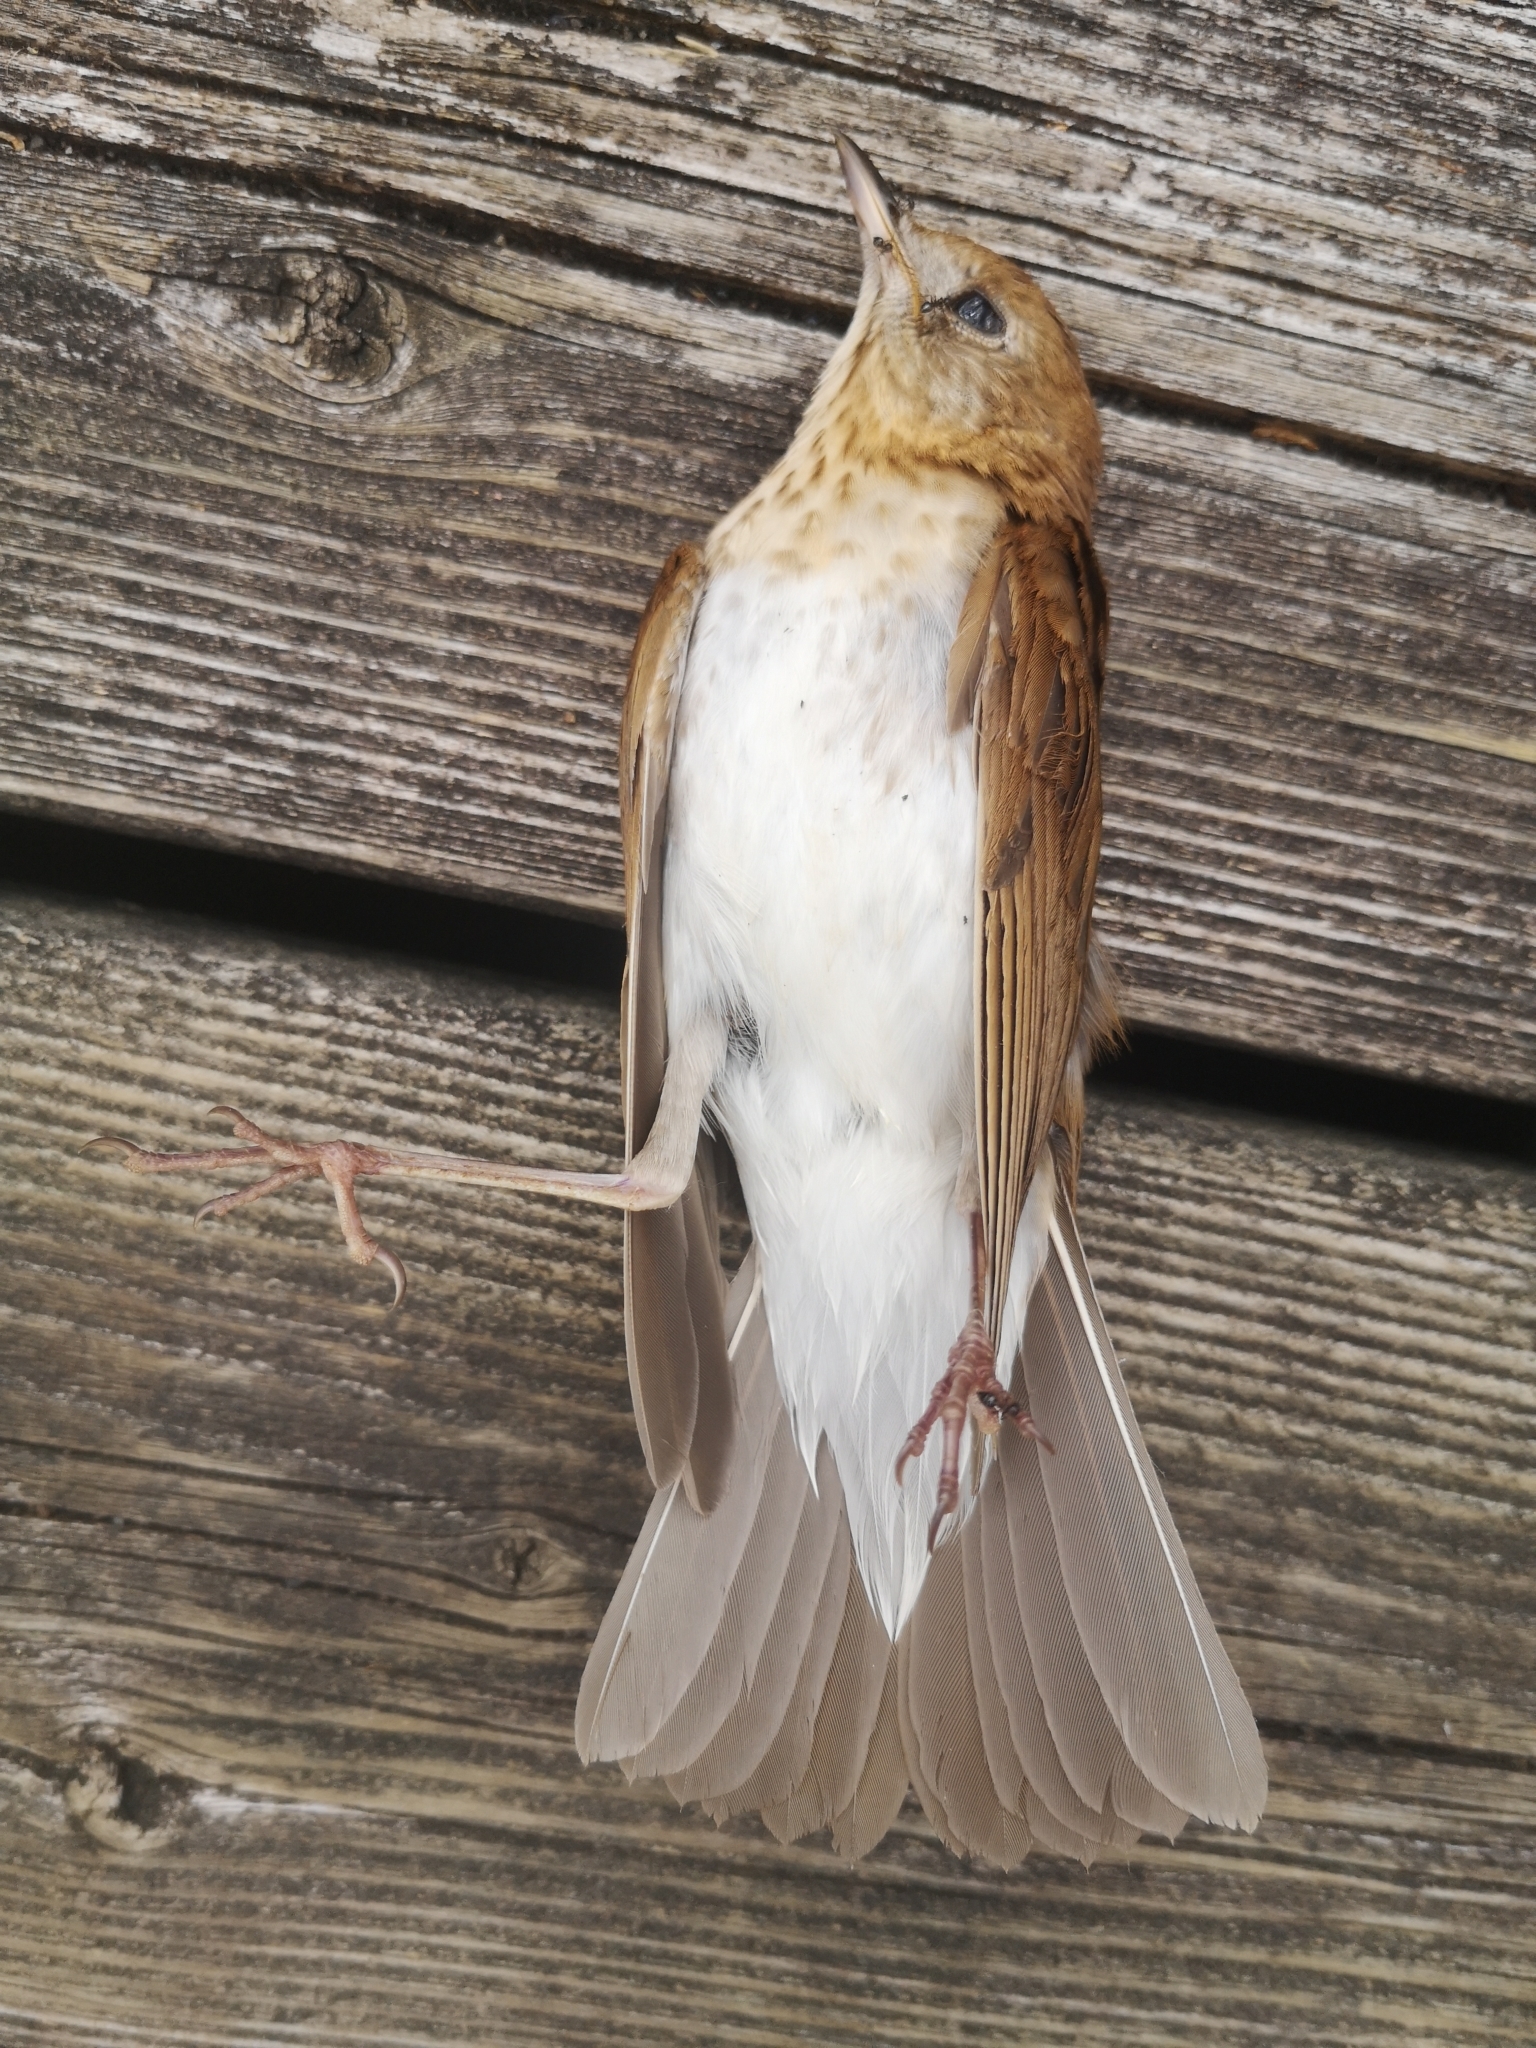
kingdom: Animalia
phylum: Chordata
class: Aves
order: Passeriformes
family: Turdidae
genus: Catharus
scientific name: Catharus fuscescens
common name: Veery
